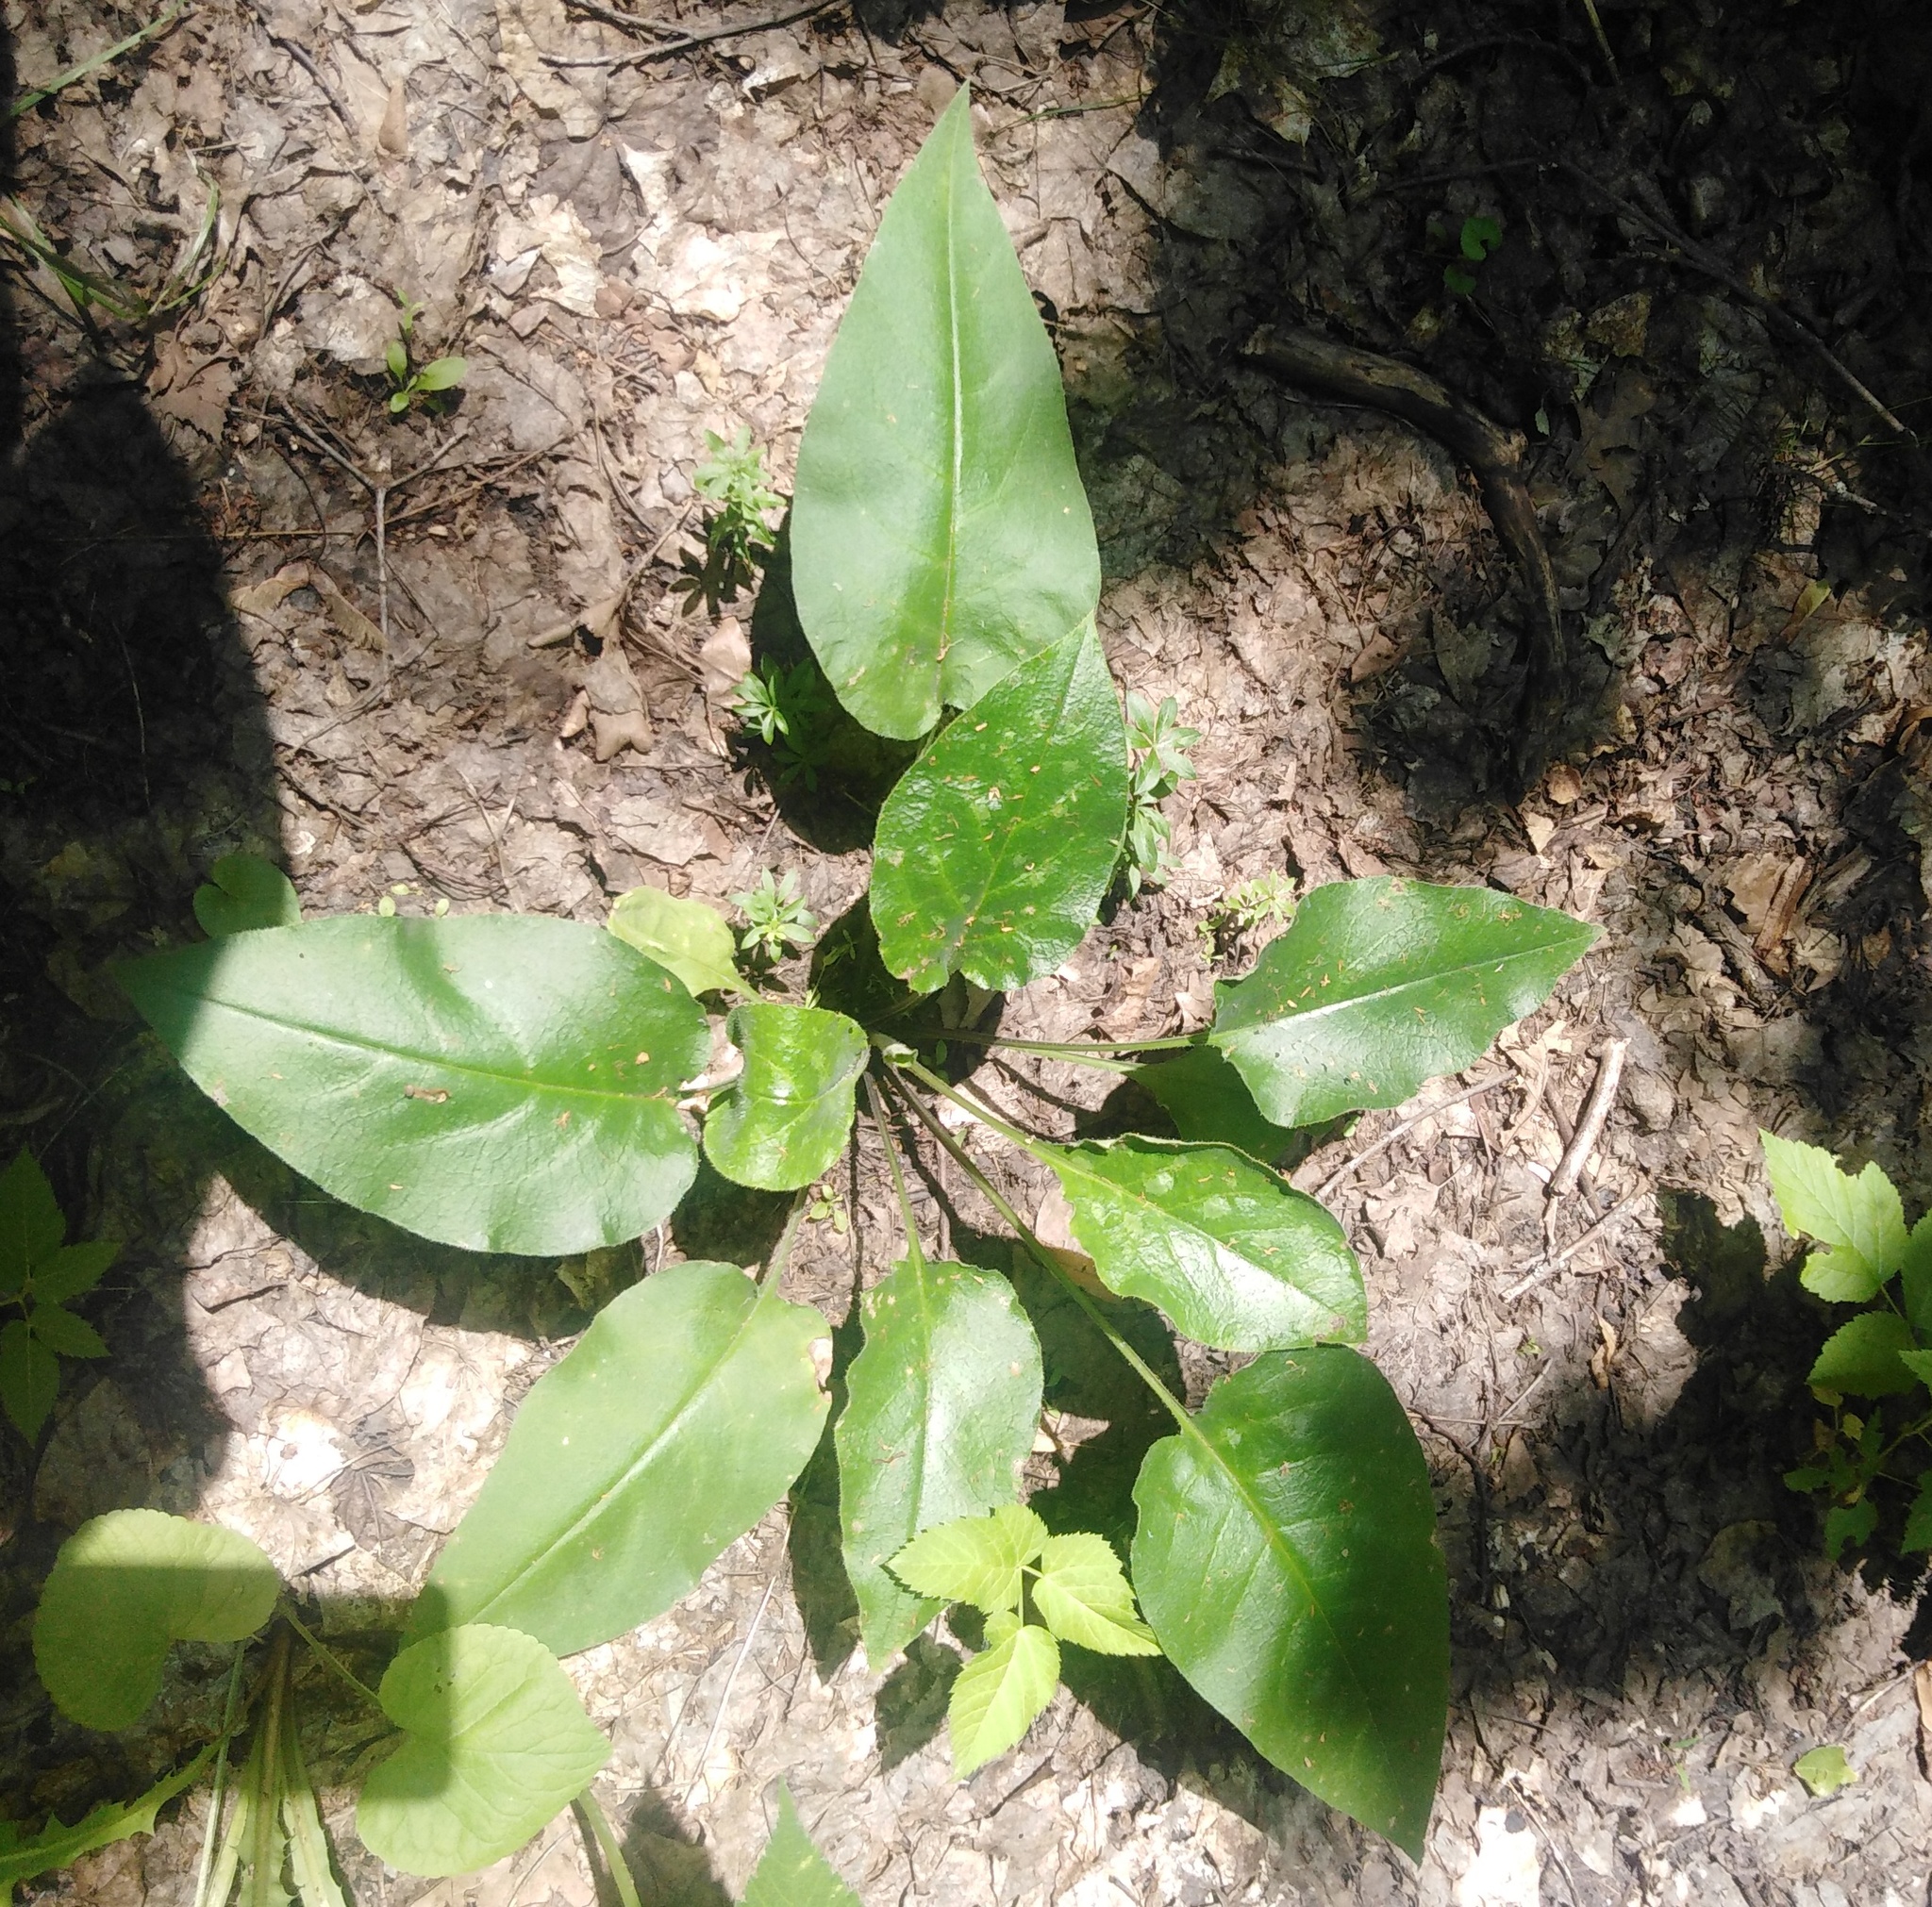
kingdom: Plantae
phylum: Tracheophyta
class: Magnoliopsida
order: Boraginales
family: Boraginaceae
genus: Pulmonaria
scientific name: Pulmonaria obscura
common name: Suffolk lungwort
